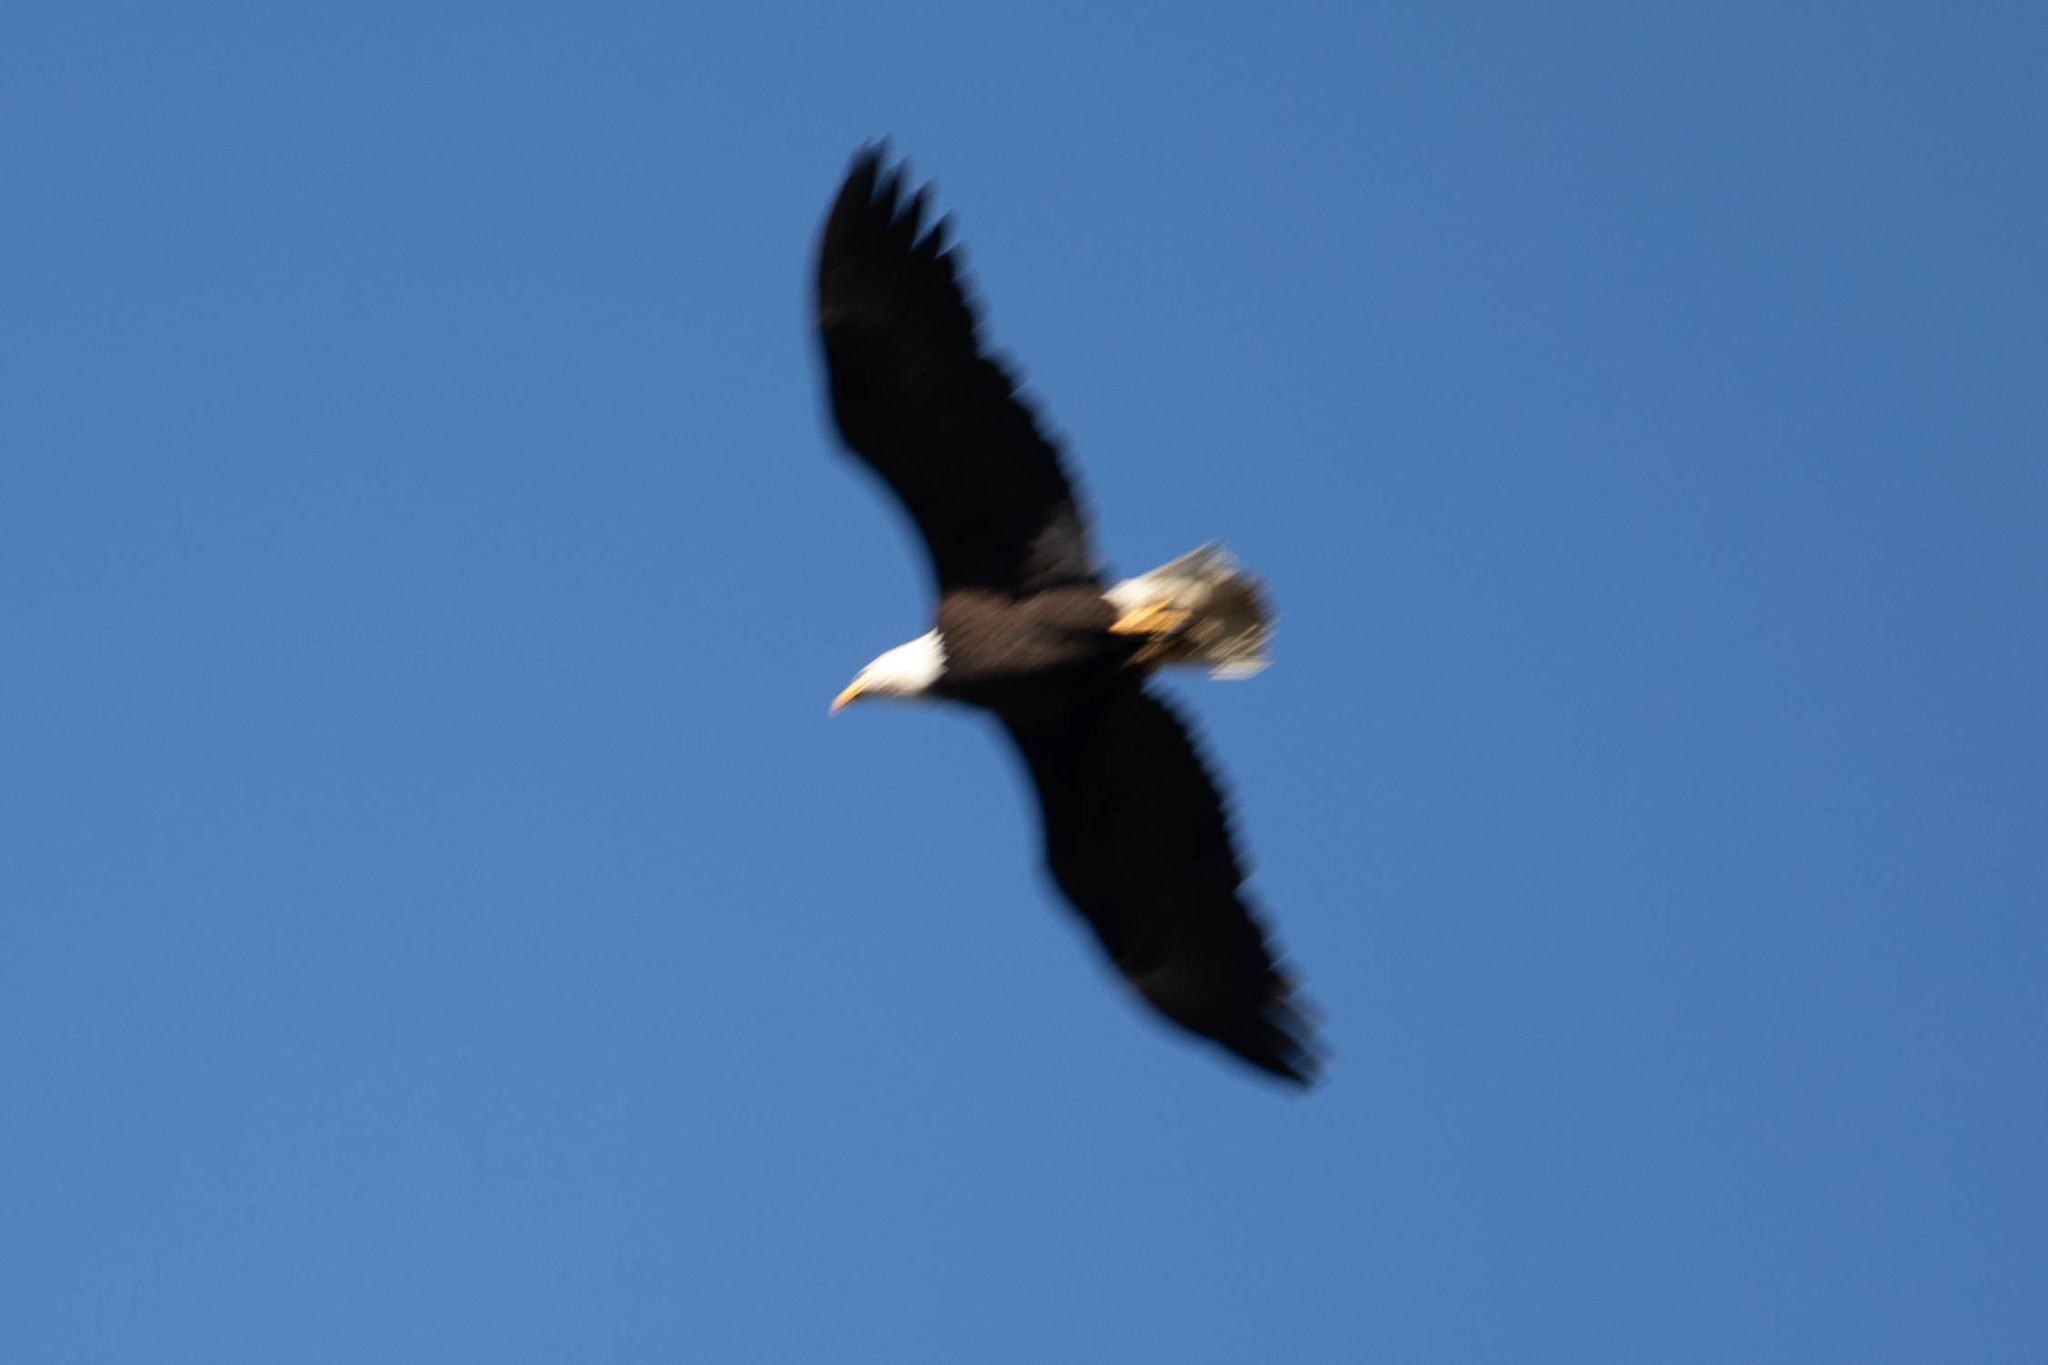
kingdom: Animalia
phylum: Chordata
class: Aves
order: Accipitriformes
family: Accipitridae
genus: Haliaeetus
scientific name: Haliaeetus leucocephalus
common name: Bald eagle
